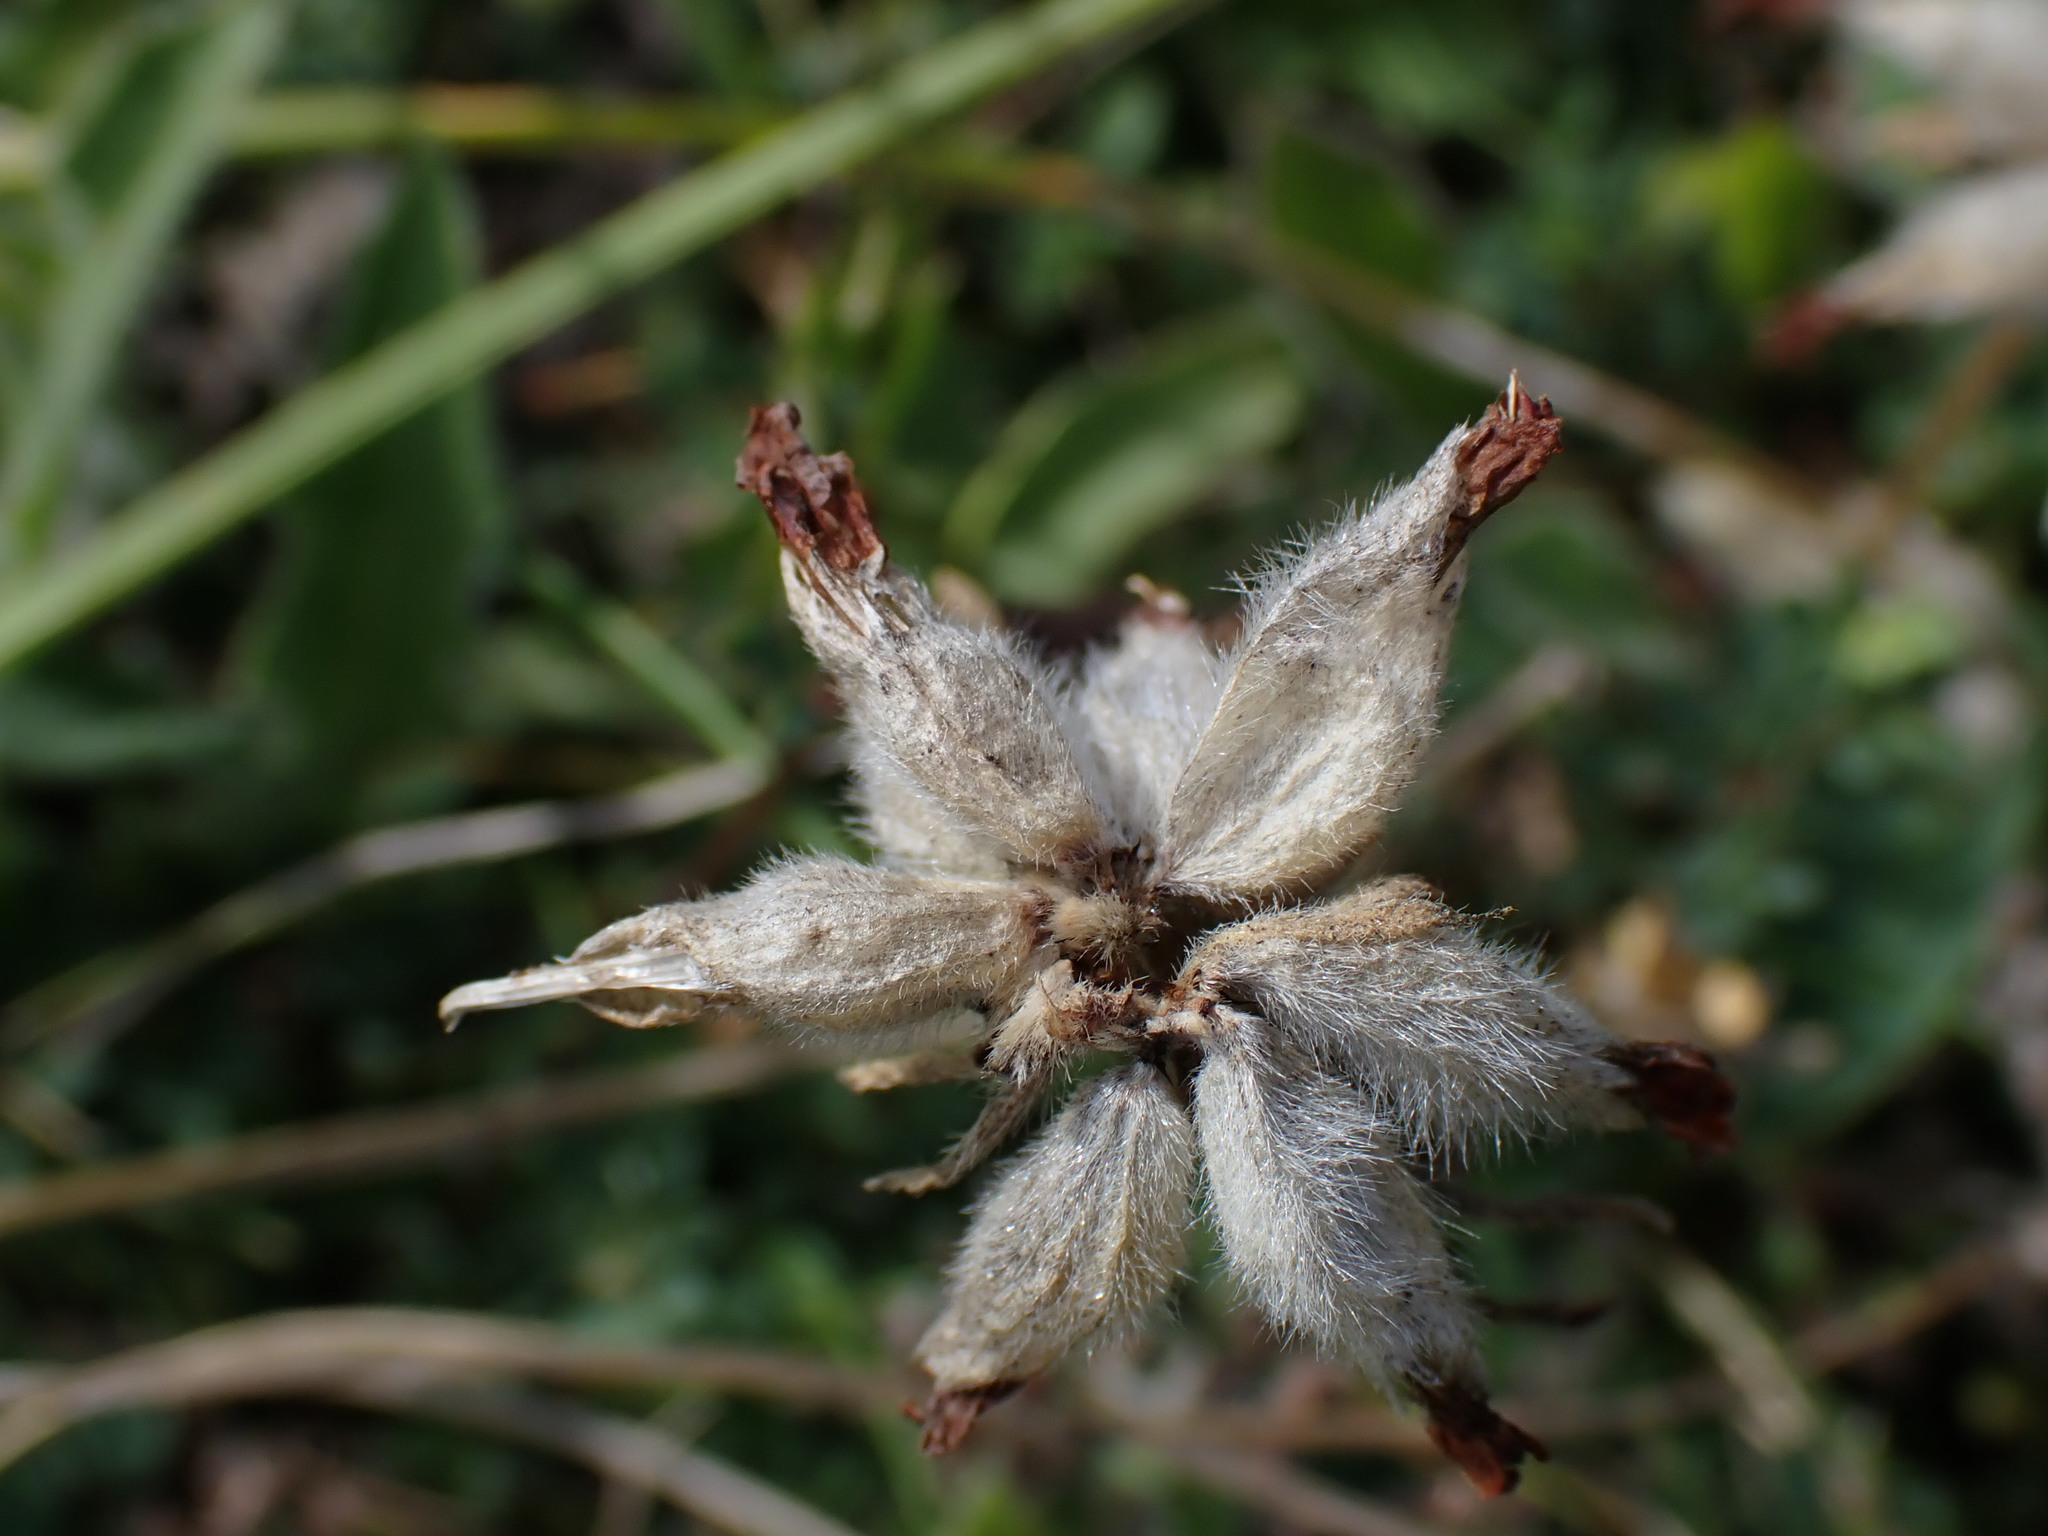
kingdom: Plantae
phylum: Tracheophyta
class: Magnoliopsida
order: Fabales
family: Fabaceae
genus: Anthyllis
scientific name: Anthyllis vulneraria
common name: Kidney vetch
